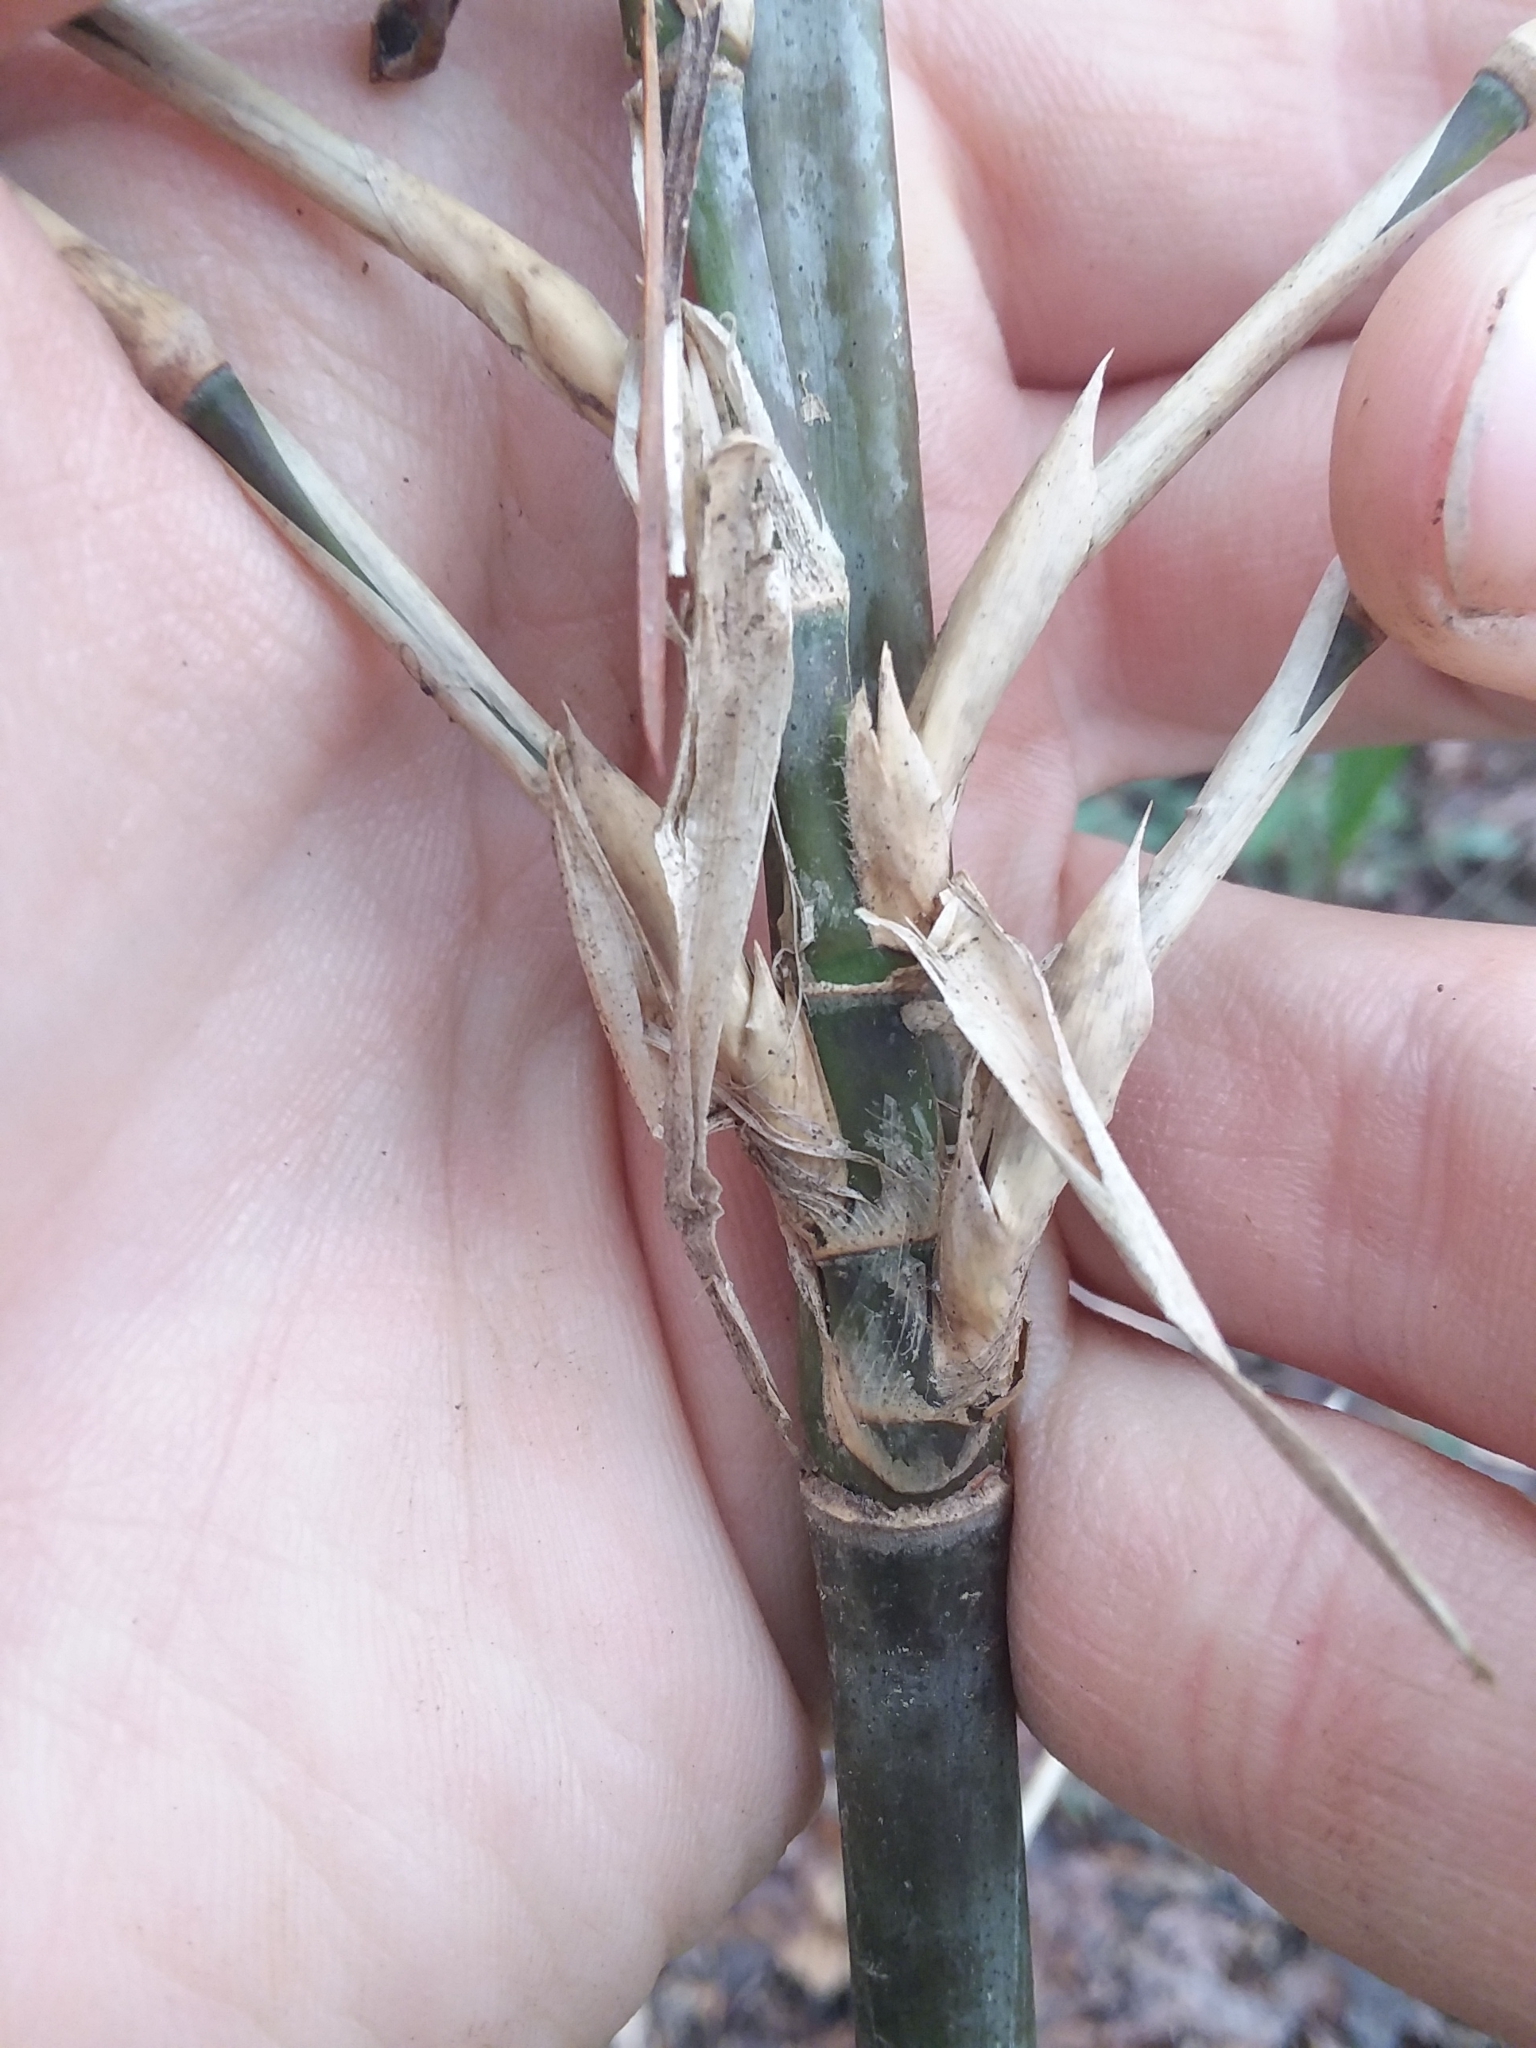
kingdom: Plantae
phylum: Tracheophyta
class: Liliopsida
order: Poales
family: Poaceae
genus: Arundinaria
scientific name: Arundinaria gigantea
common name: Giant cane
